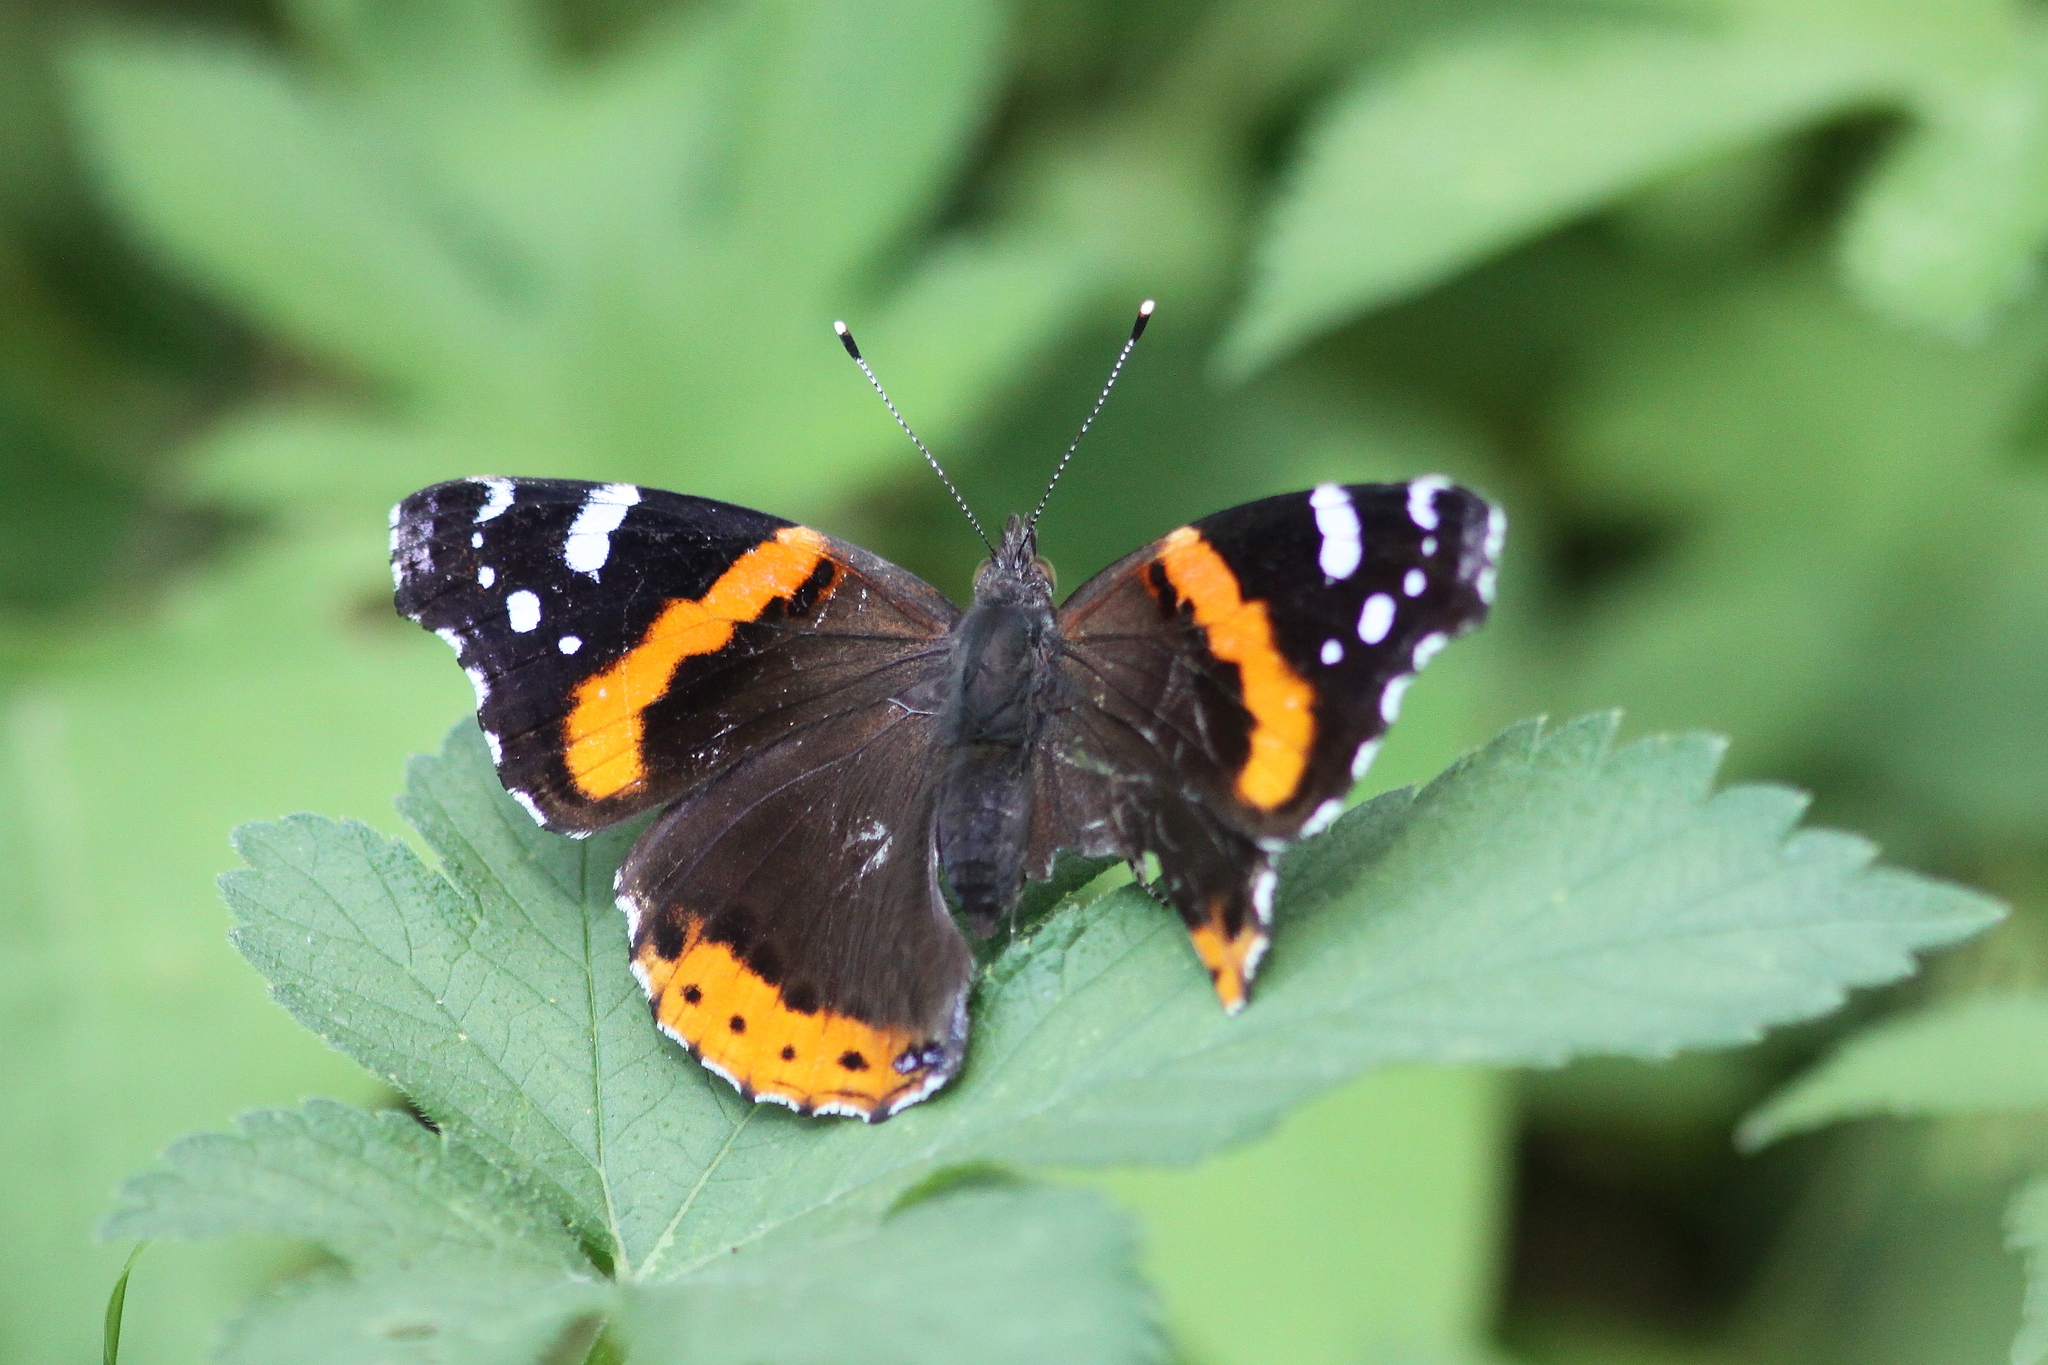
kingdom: Animalia
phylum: Arthropoda
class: Insecta
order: Lepidoptera
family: Nymphalidae
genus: Vanessa
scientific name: Vanessa atalanta
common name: Red admiral
